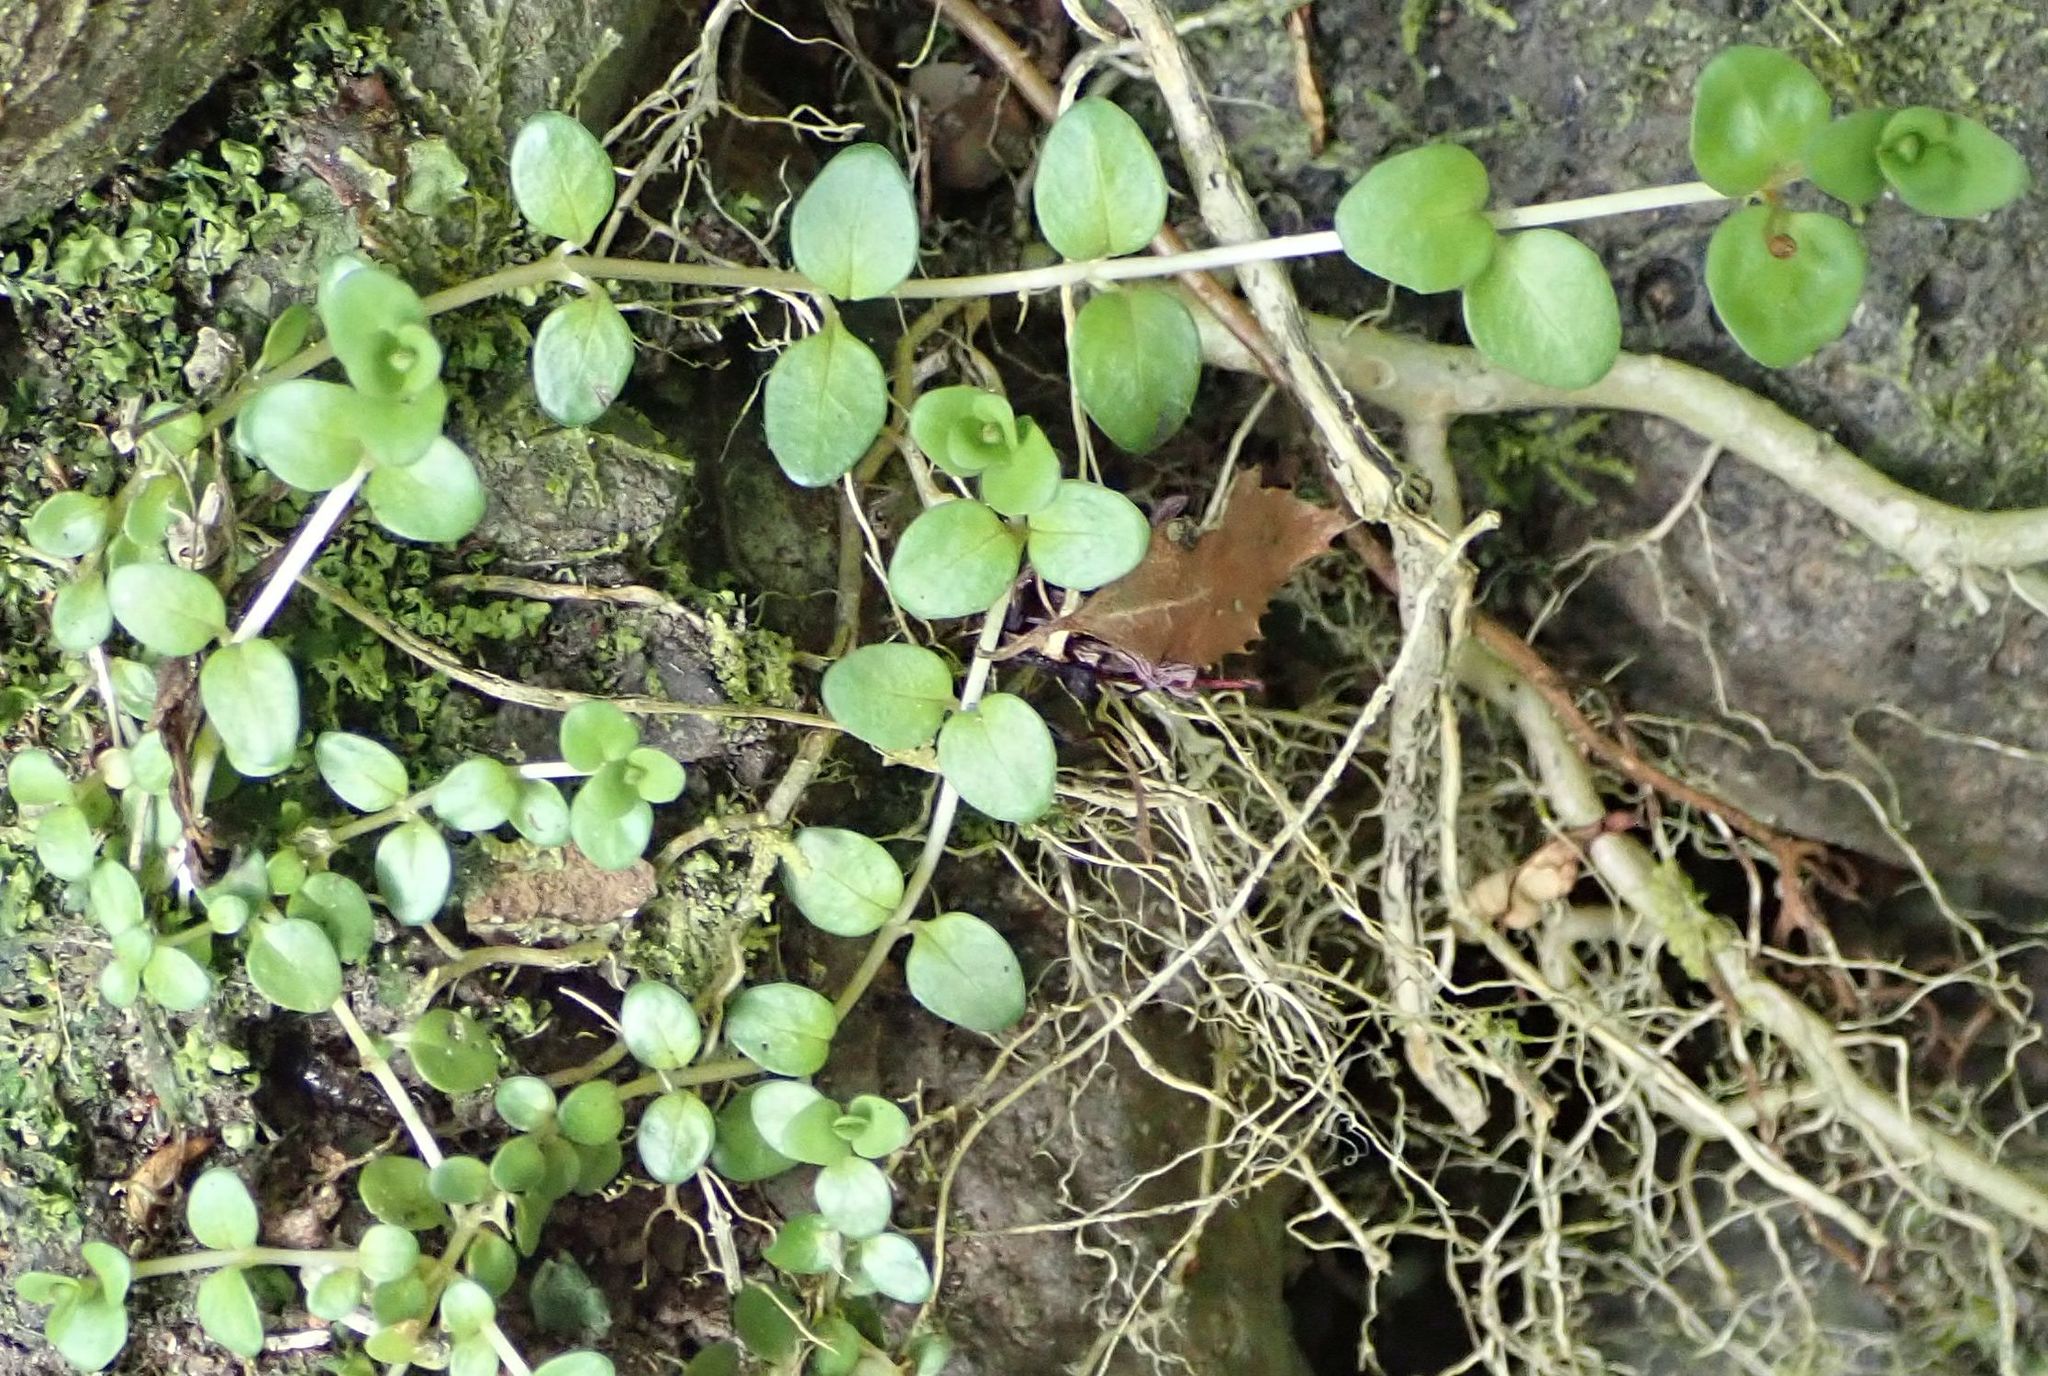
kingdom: Plantae
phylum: Tracheophyta
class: Magnoliopsida
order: Myrtales
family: Onagraceae
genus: Epilobium
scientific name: Epilobium brunnescens
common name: New zealand willowherb
